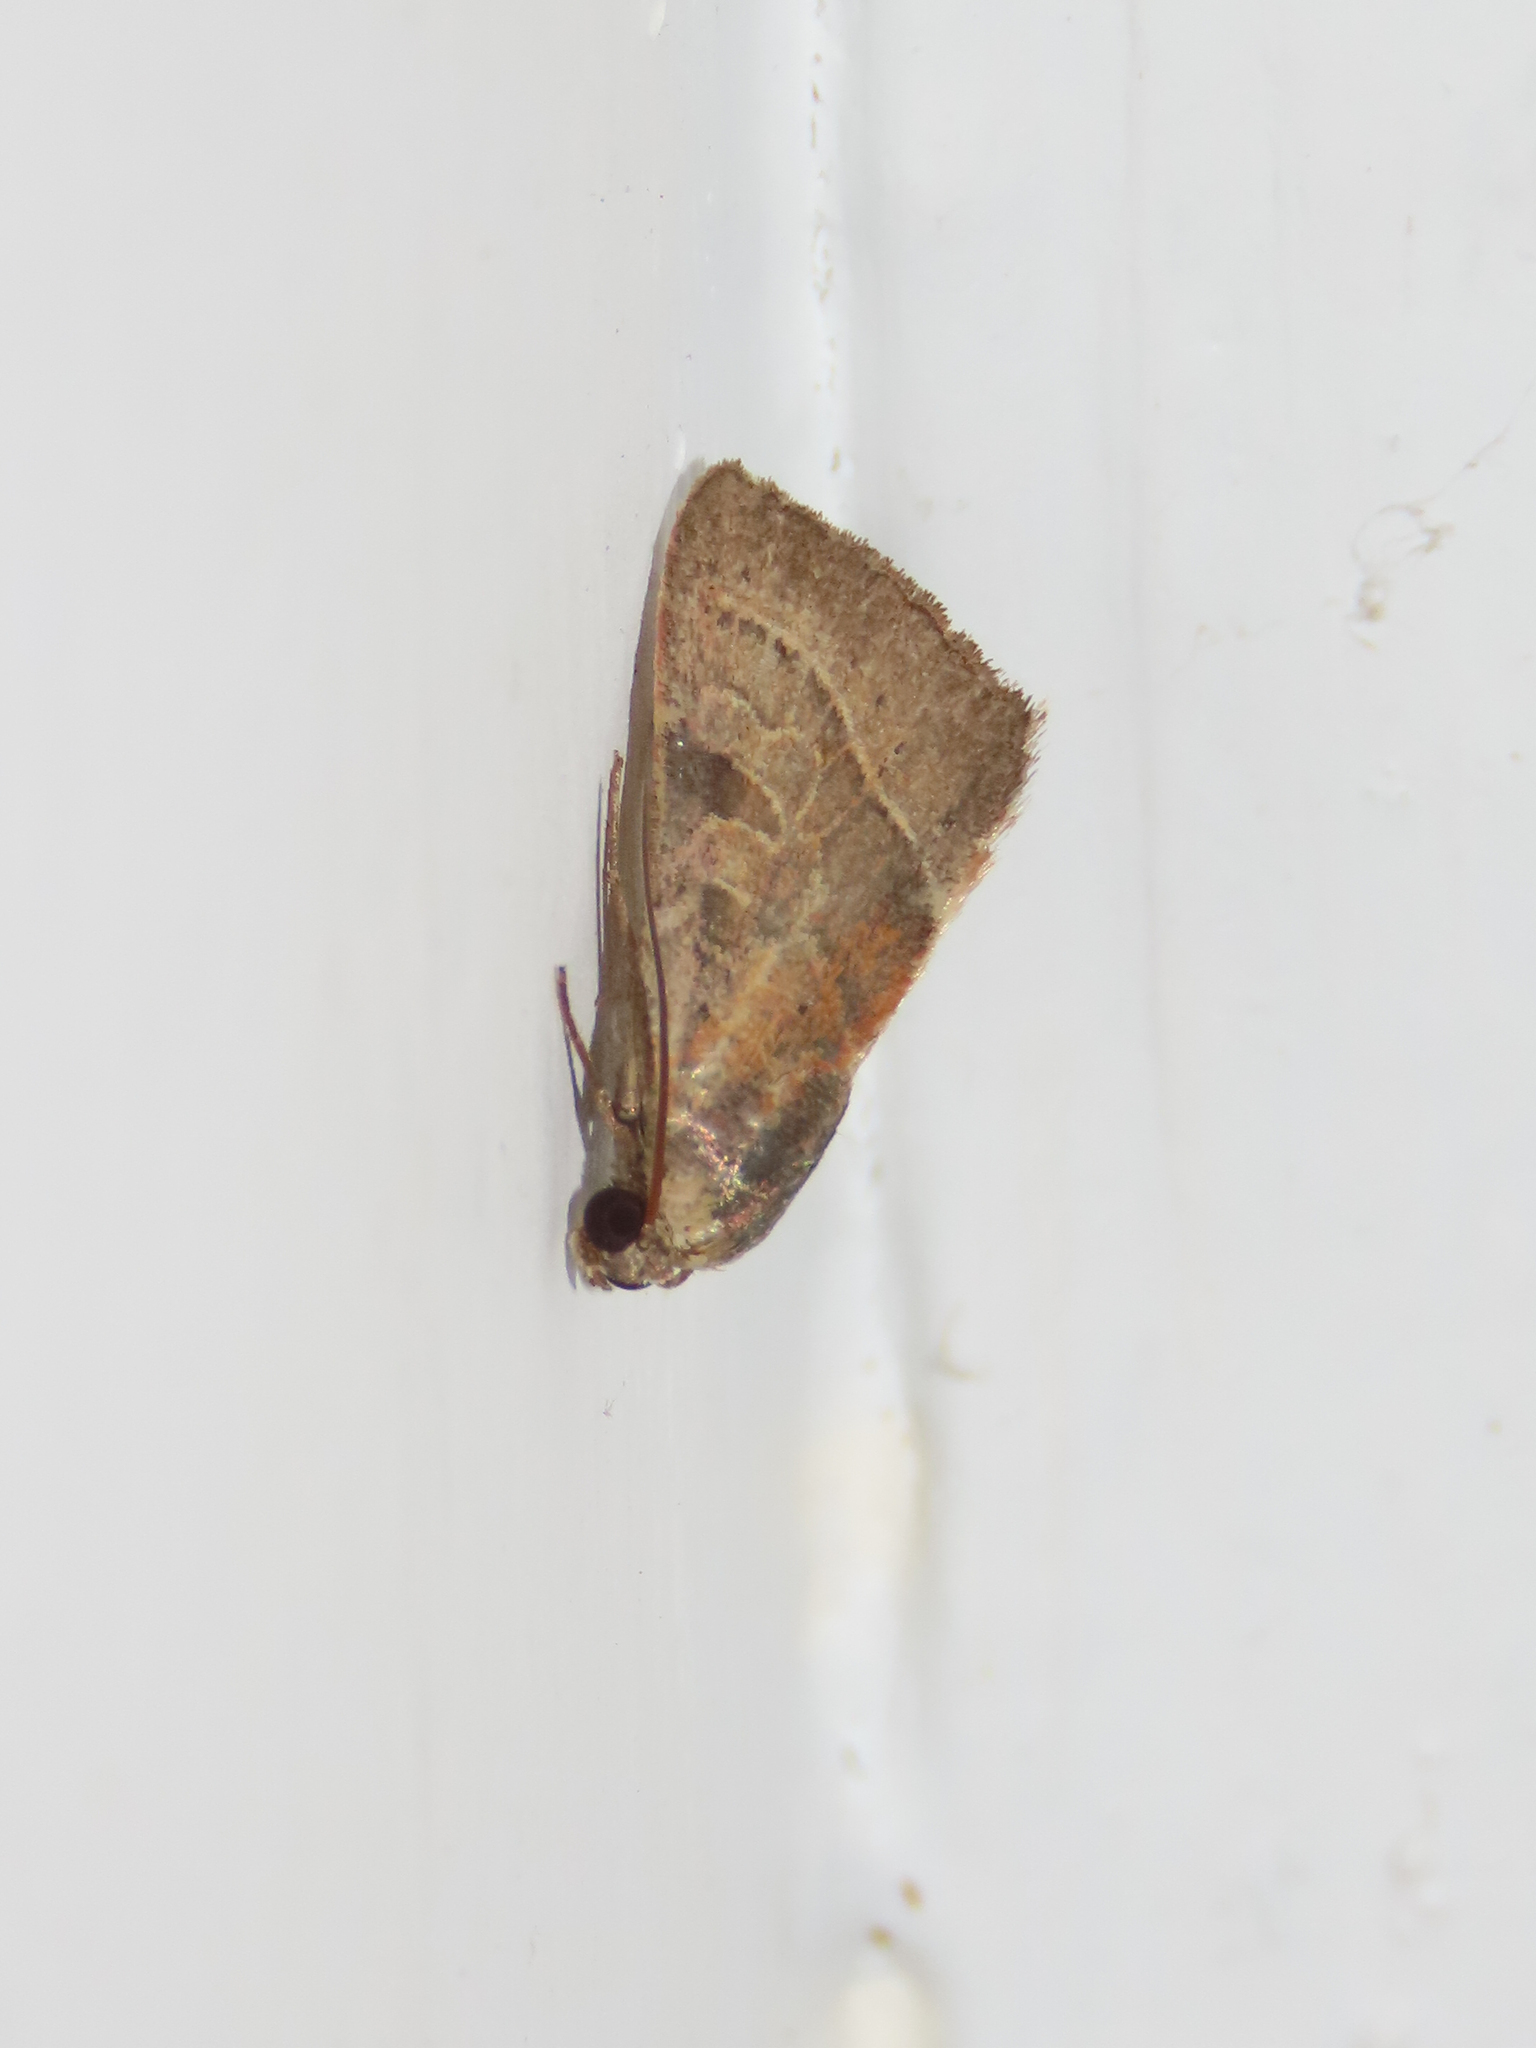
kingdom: Animalia
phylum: Arthropoda
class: Insecta
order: Lepidoptera
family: Noctuidae
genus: Galgula
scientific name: Galgula partita
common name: Wedgeling
